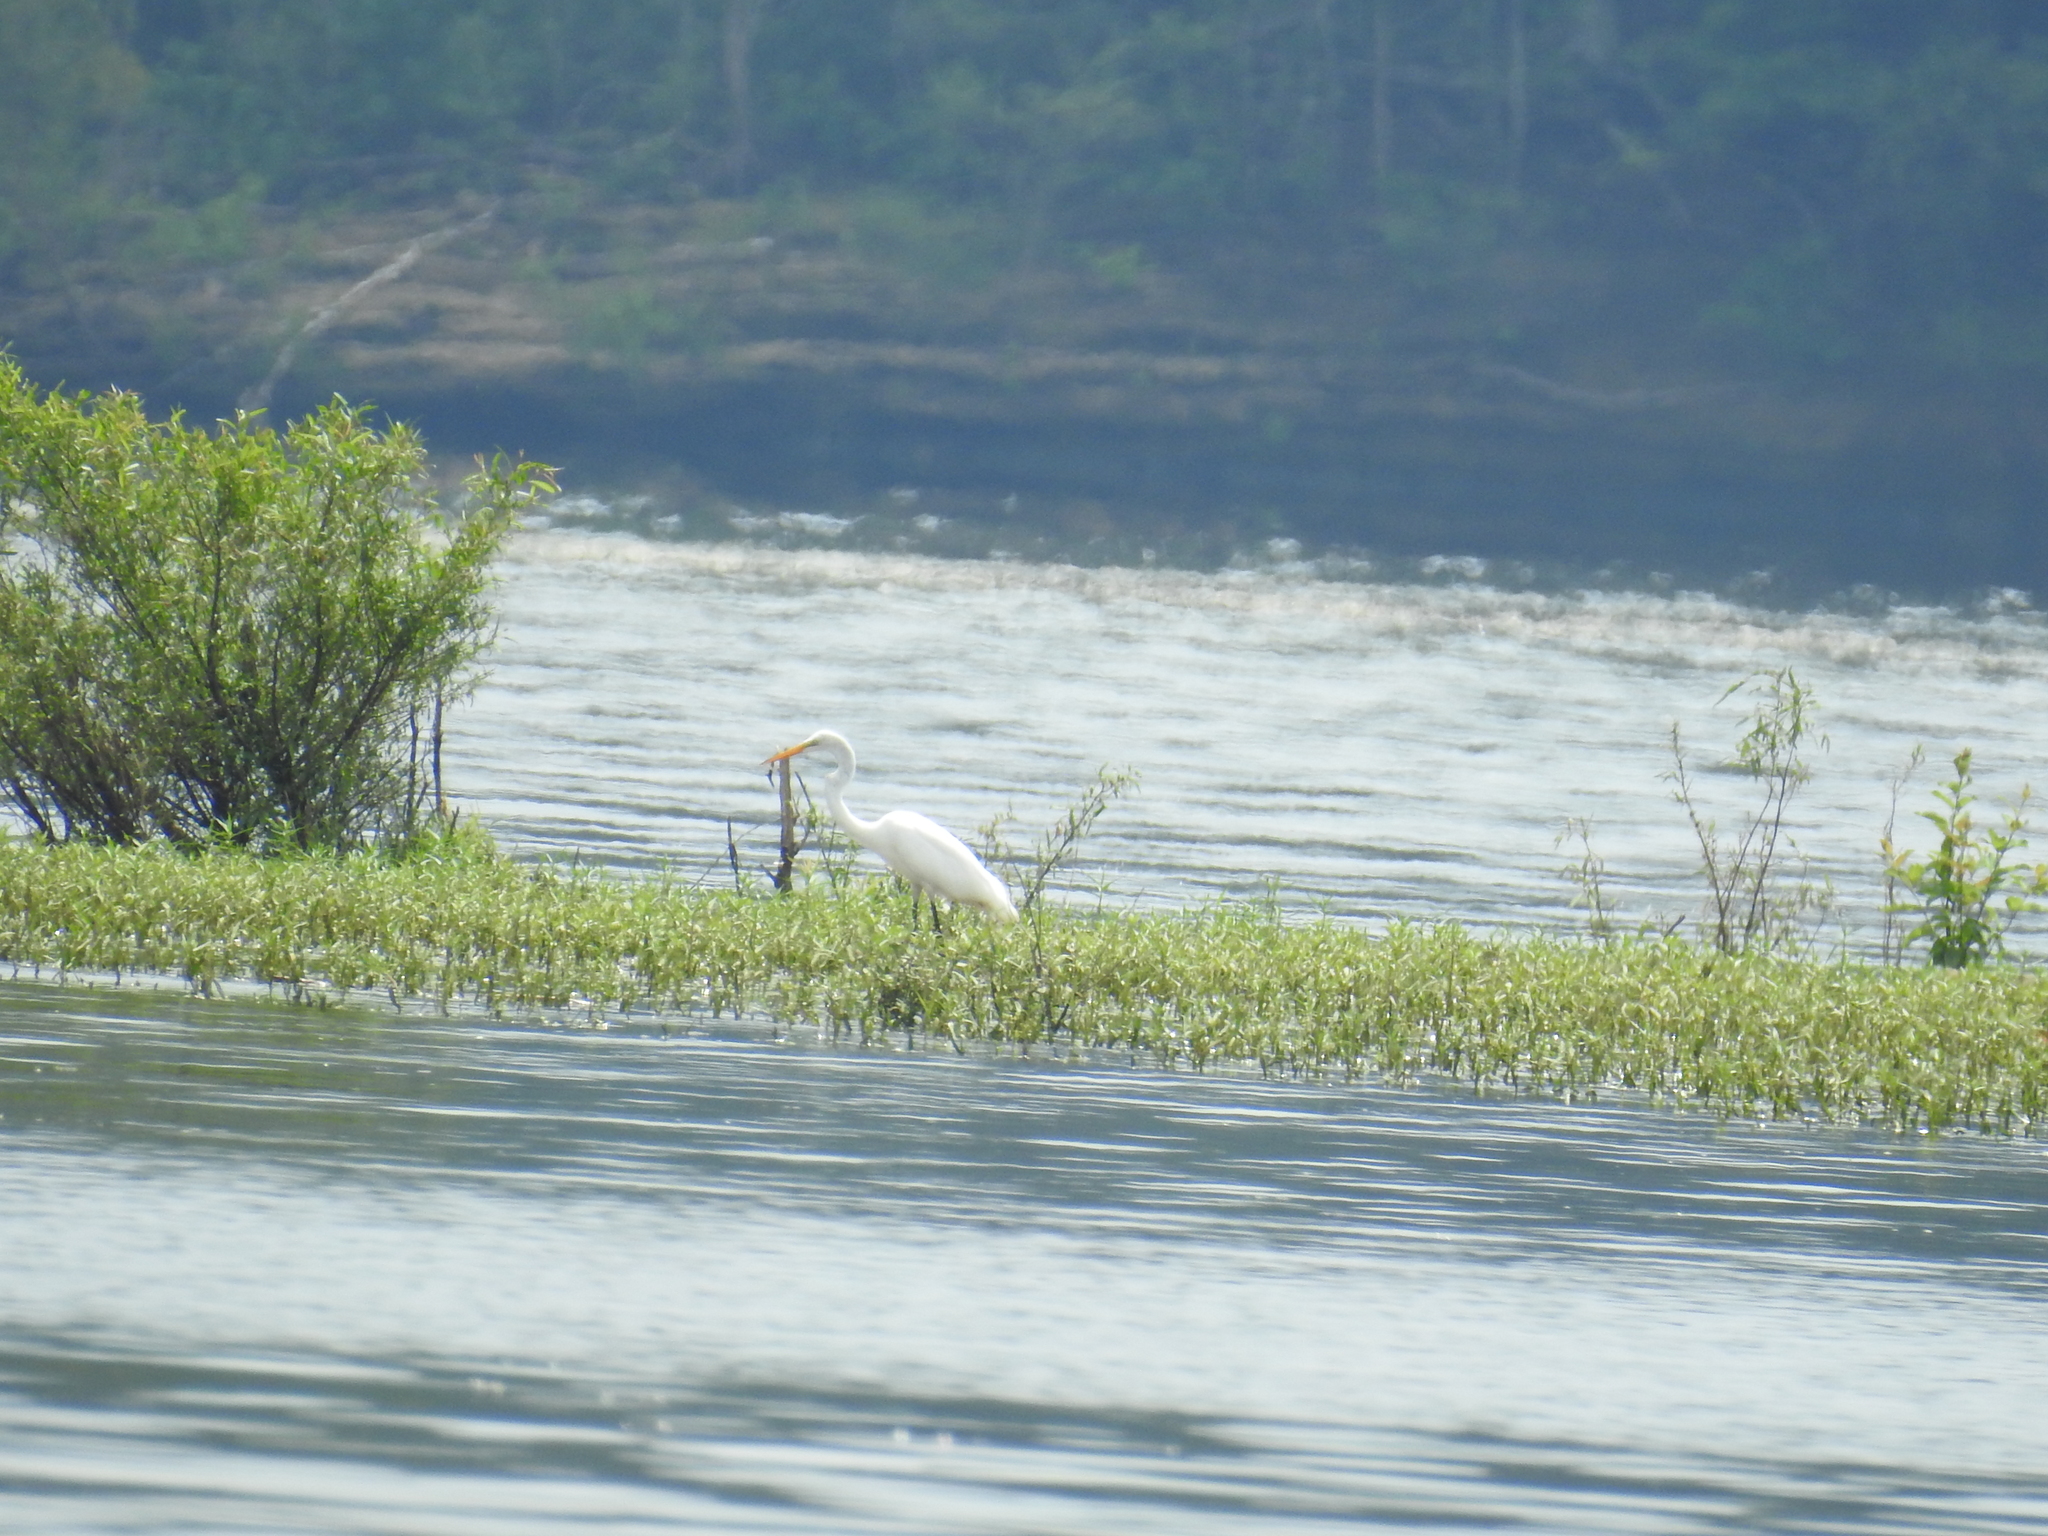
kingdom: Animalia
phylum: Chordata
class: Aves
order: Pelecaniformes
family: Ardeidae
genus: Ardea
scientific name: Ardea alba
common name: Great egret
